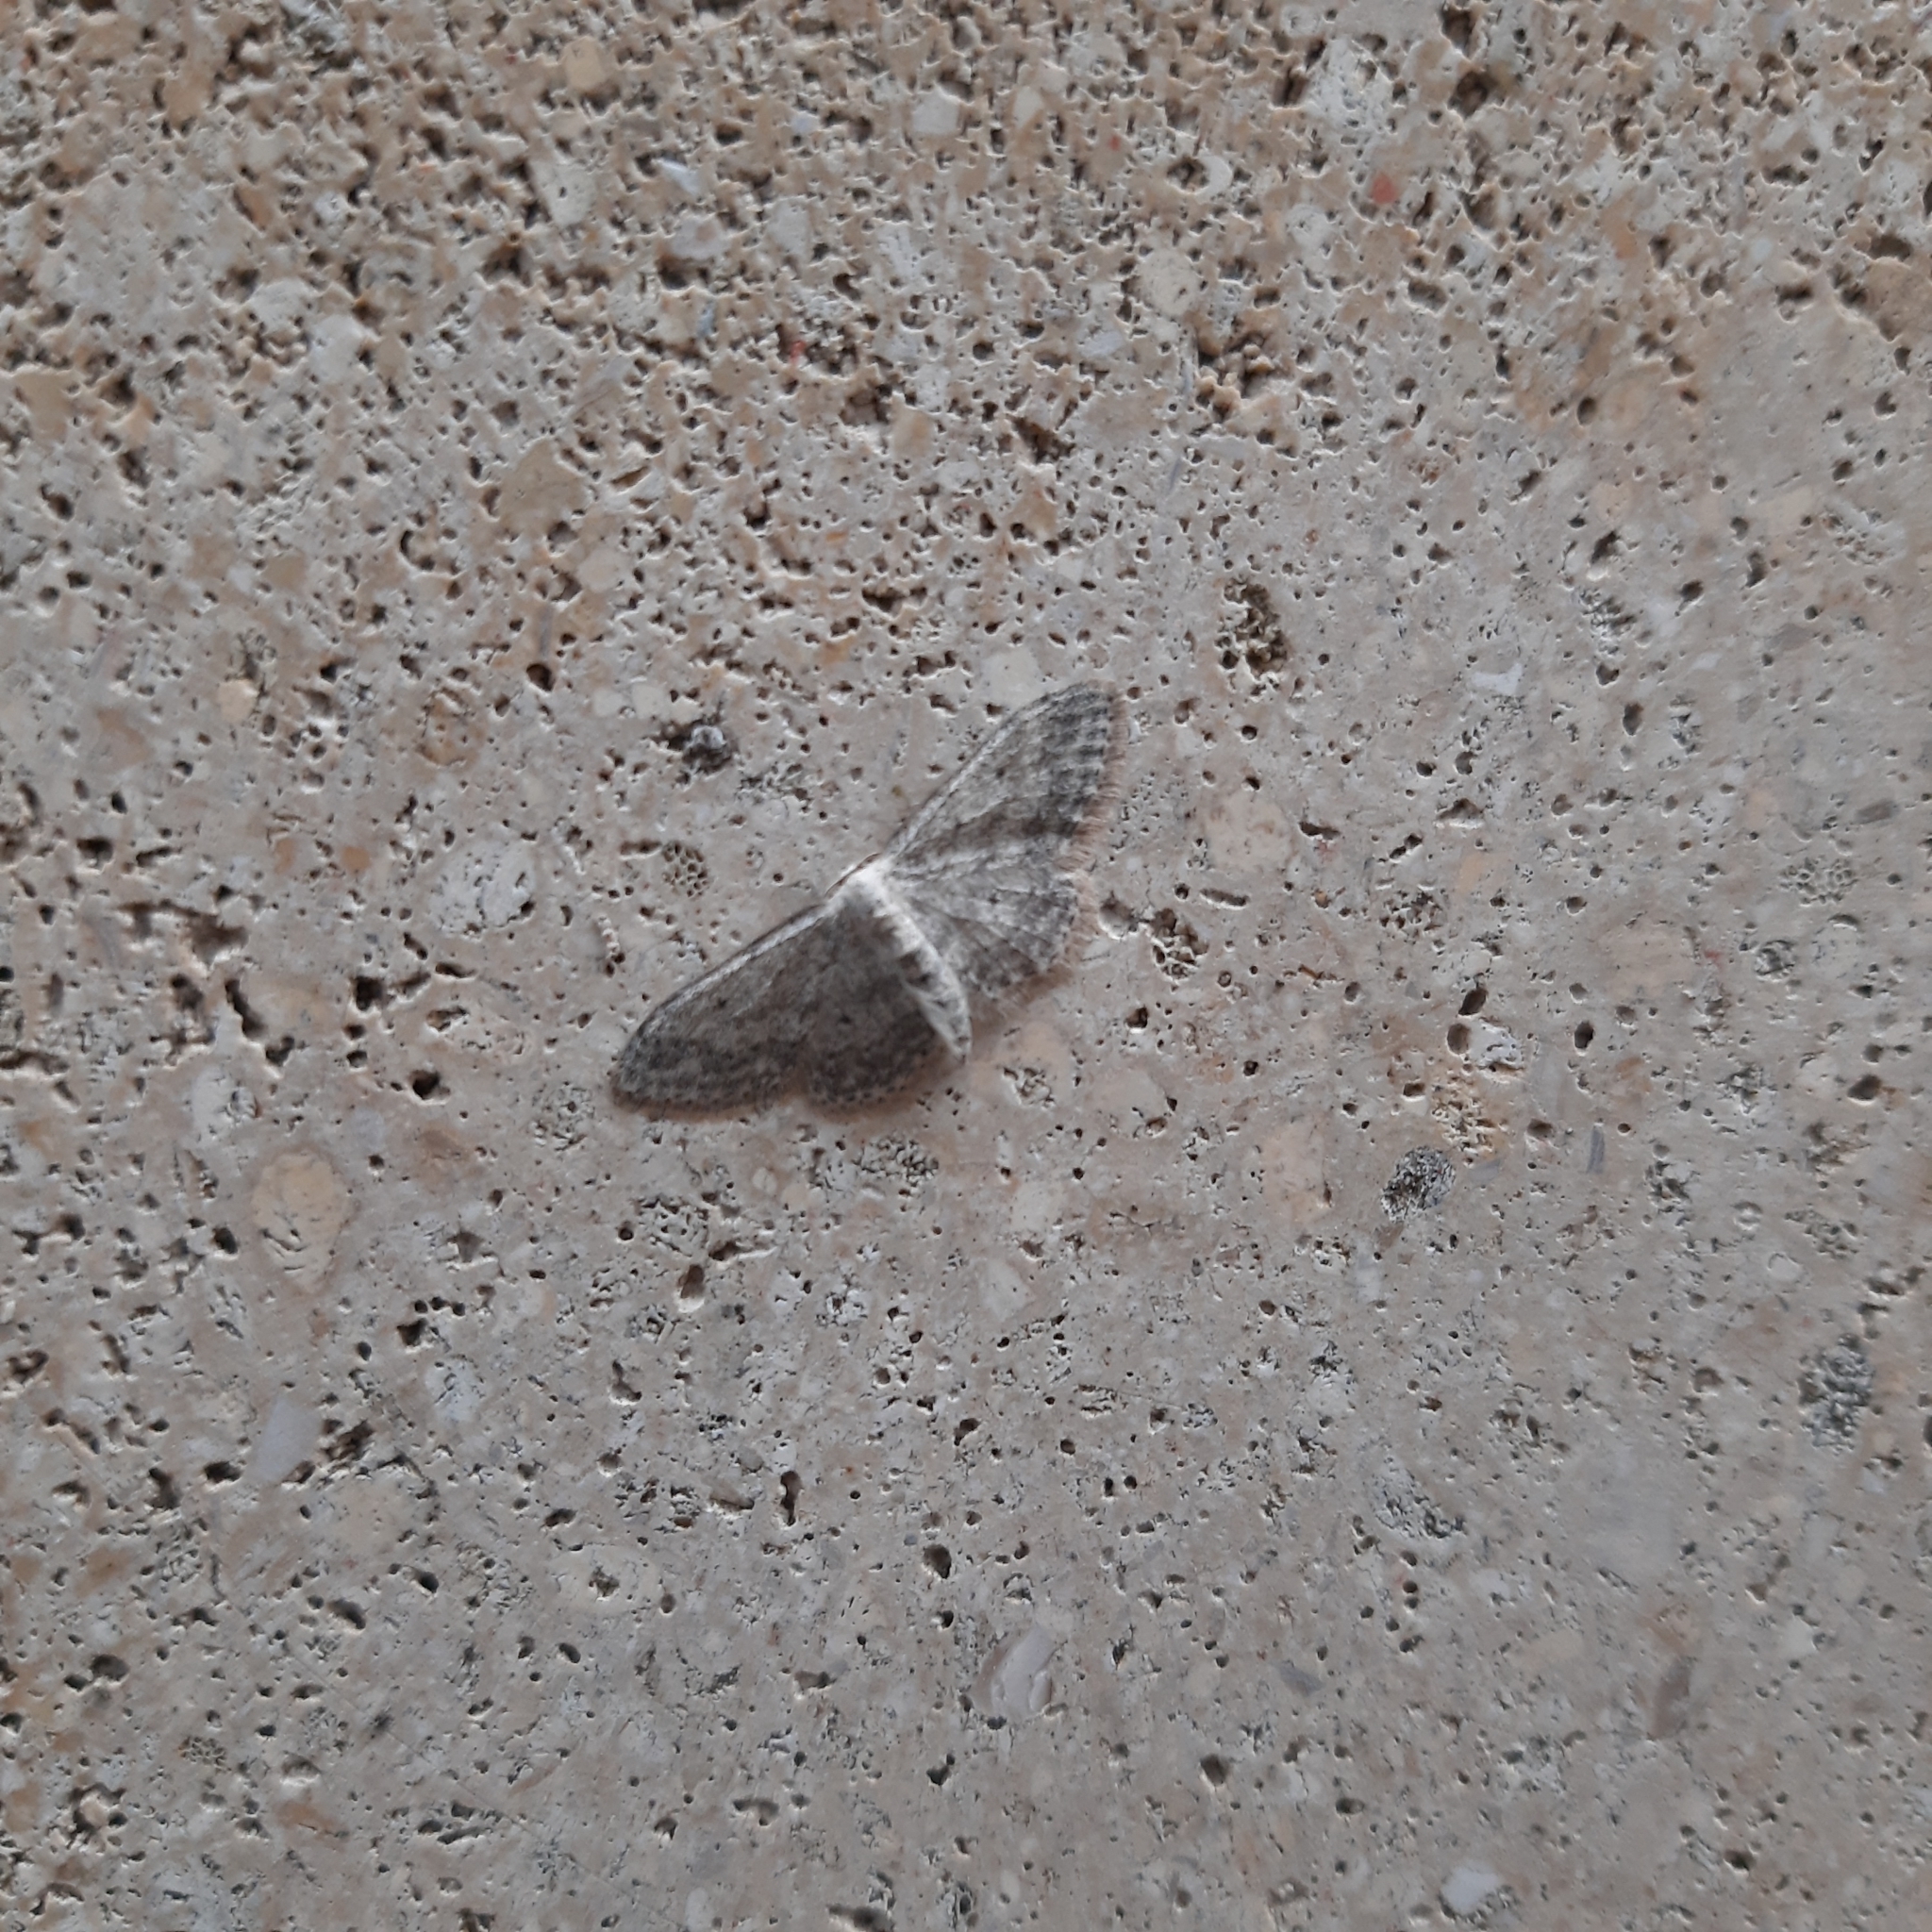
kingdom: Animalia
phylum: Arthropoda
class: Insecta
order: Lepidoptera
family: Geometridae
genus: Idaea
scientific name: Idaea seriata
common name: Small dusty wave
